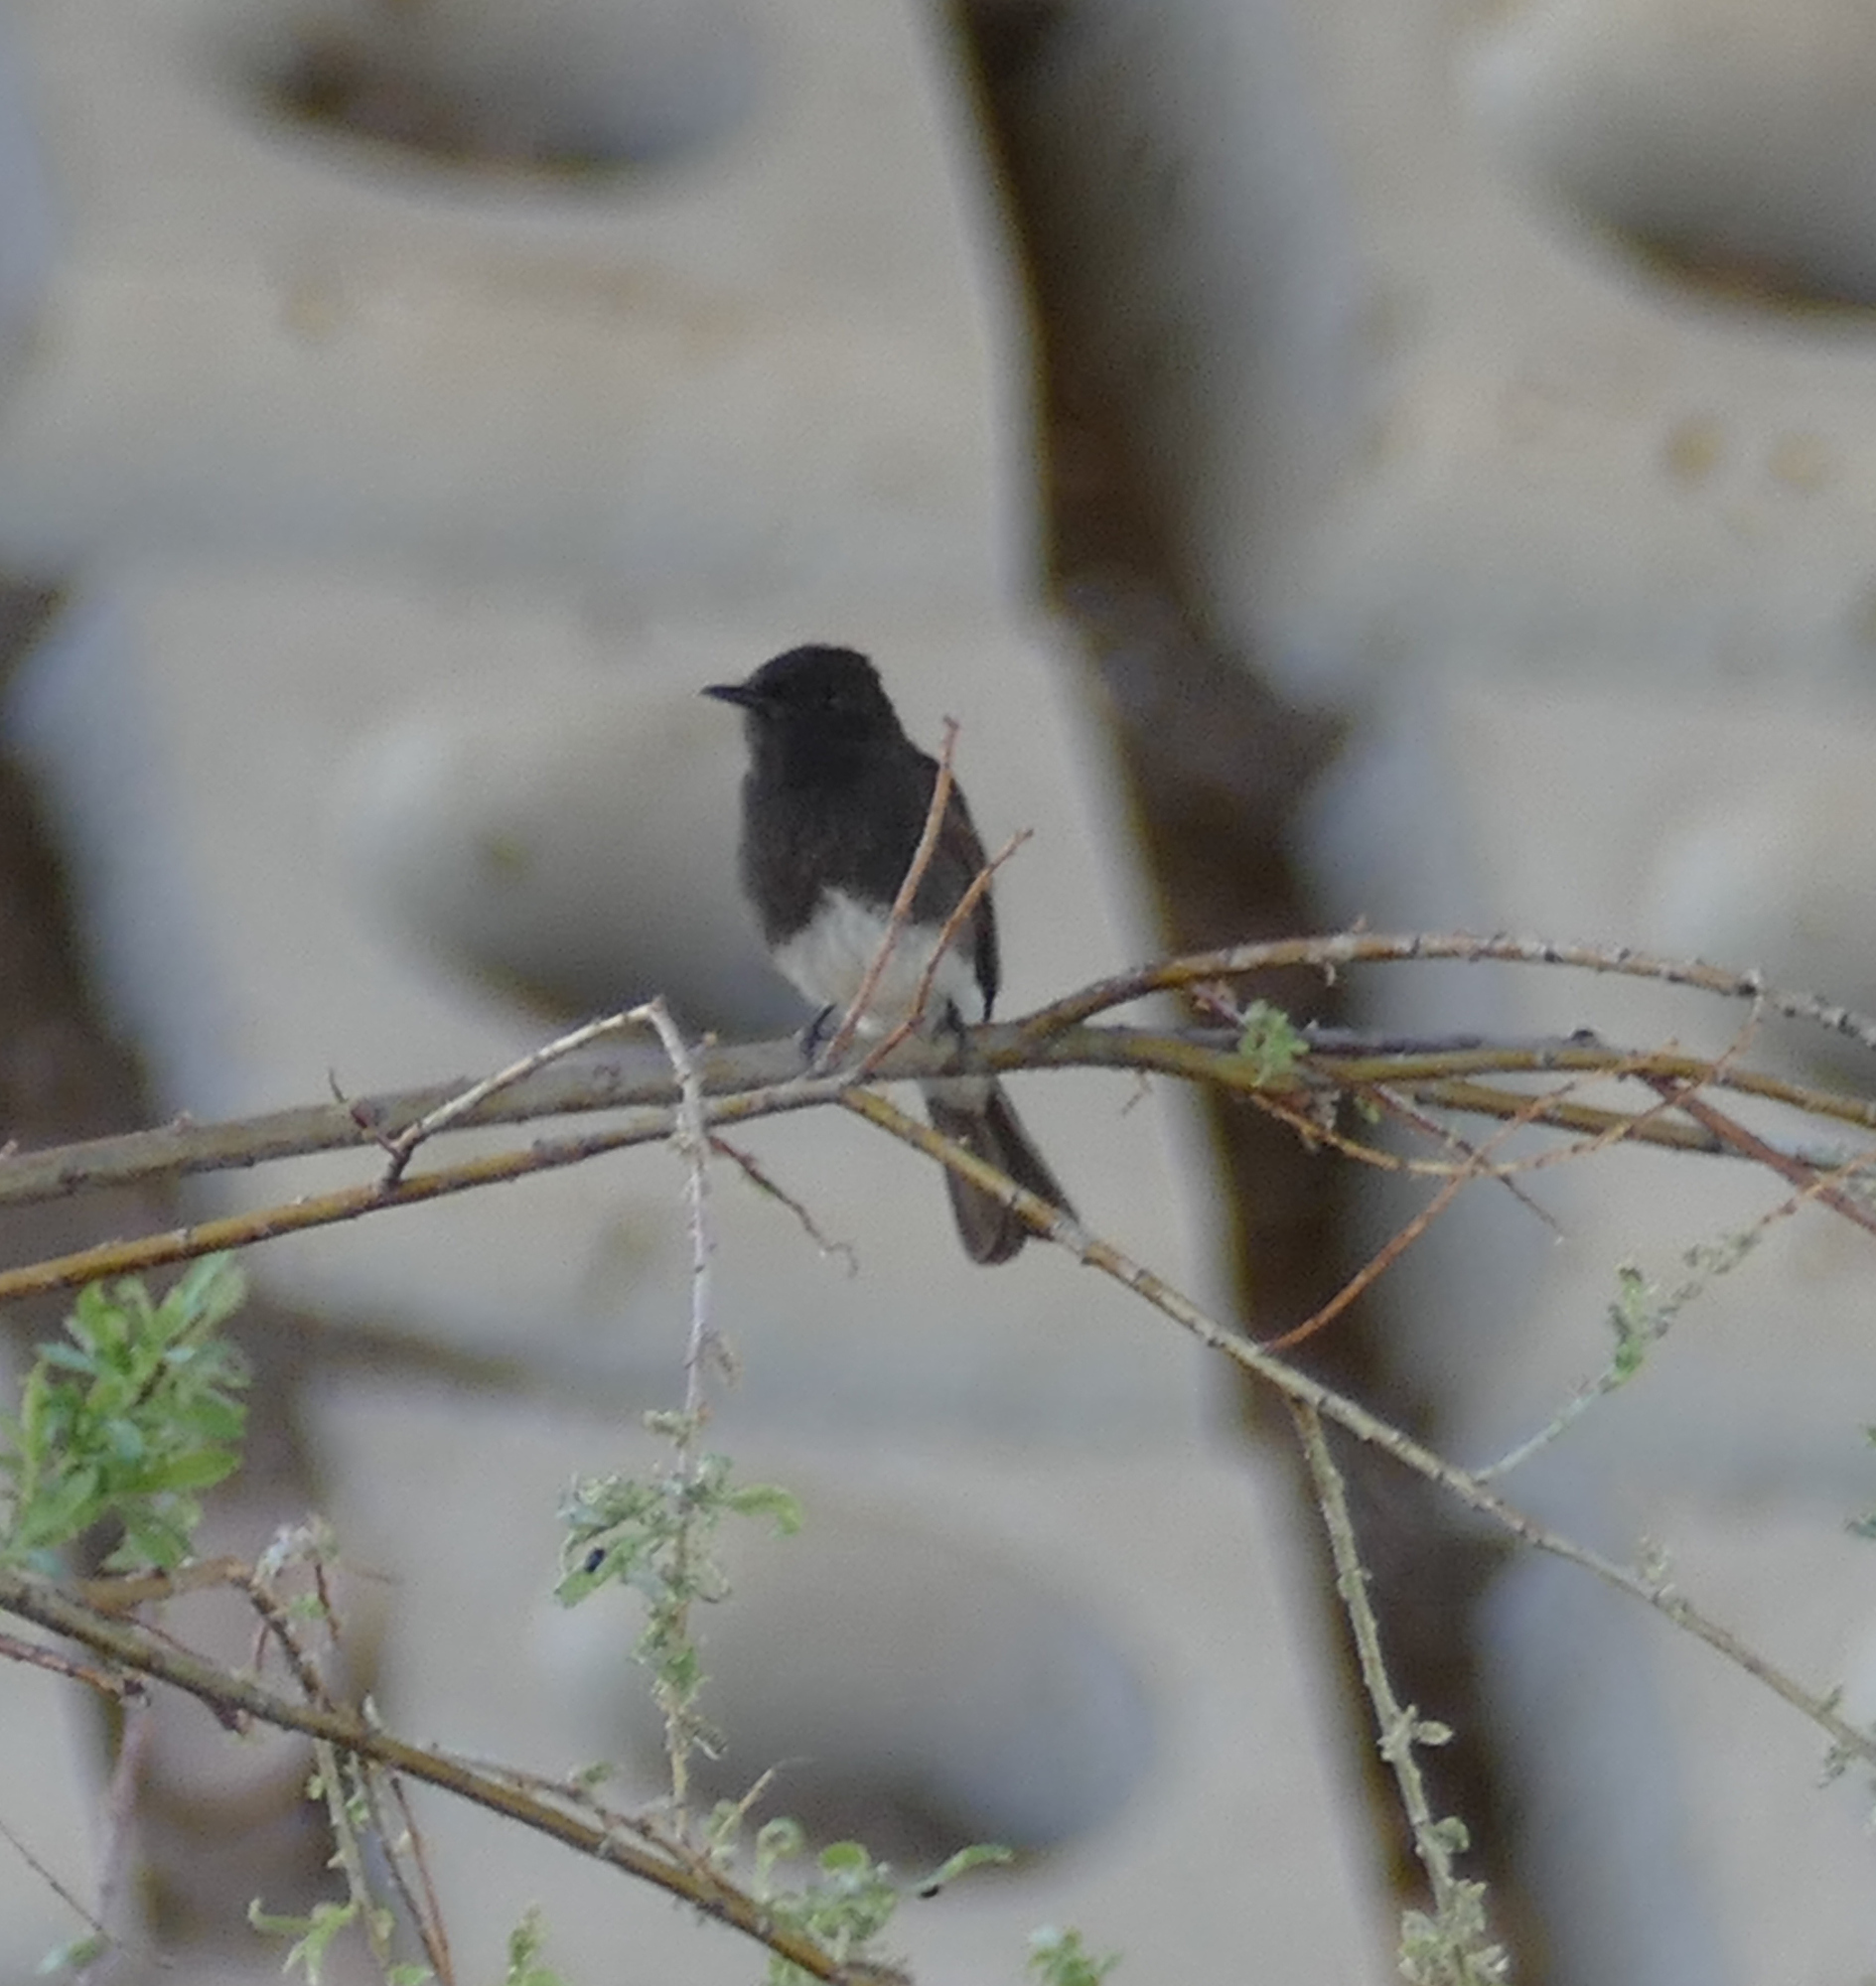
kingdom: Animalia
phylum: Chordata
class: Aves
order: Passeriformes
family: Tyrannidae
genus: Sayornis
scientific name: Sayornis nigricans
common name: Black phoebe
